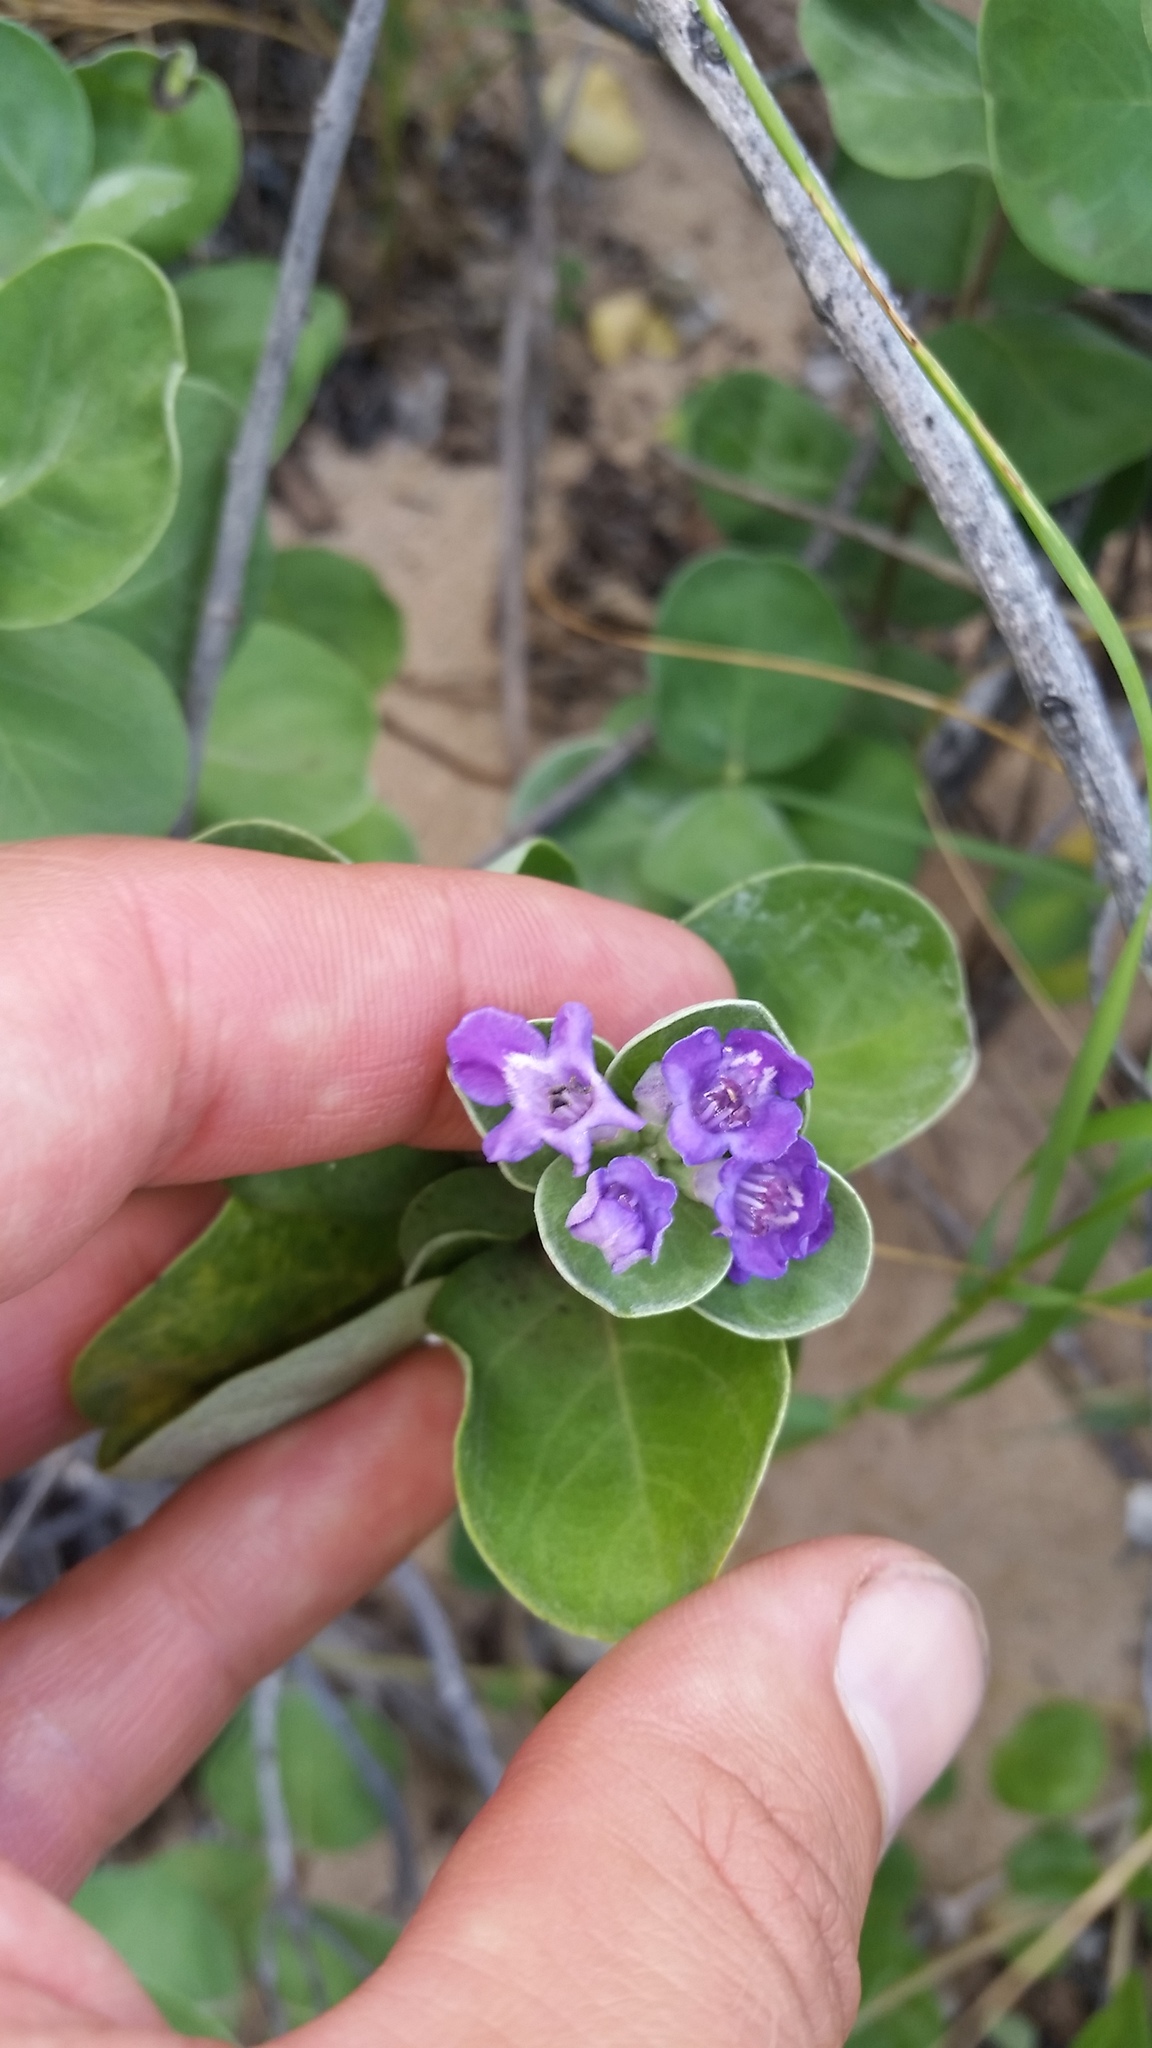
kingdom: Plantae
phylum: Tracheophyta
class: Magnoliopsida
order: Lamiales
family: Lamiaceae
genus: Vitex
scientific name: Vitex rotundifolia
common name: Beach vitex
